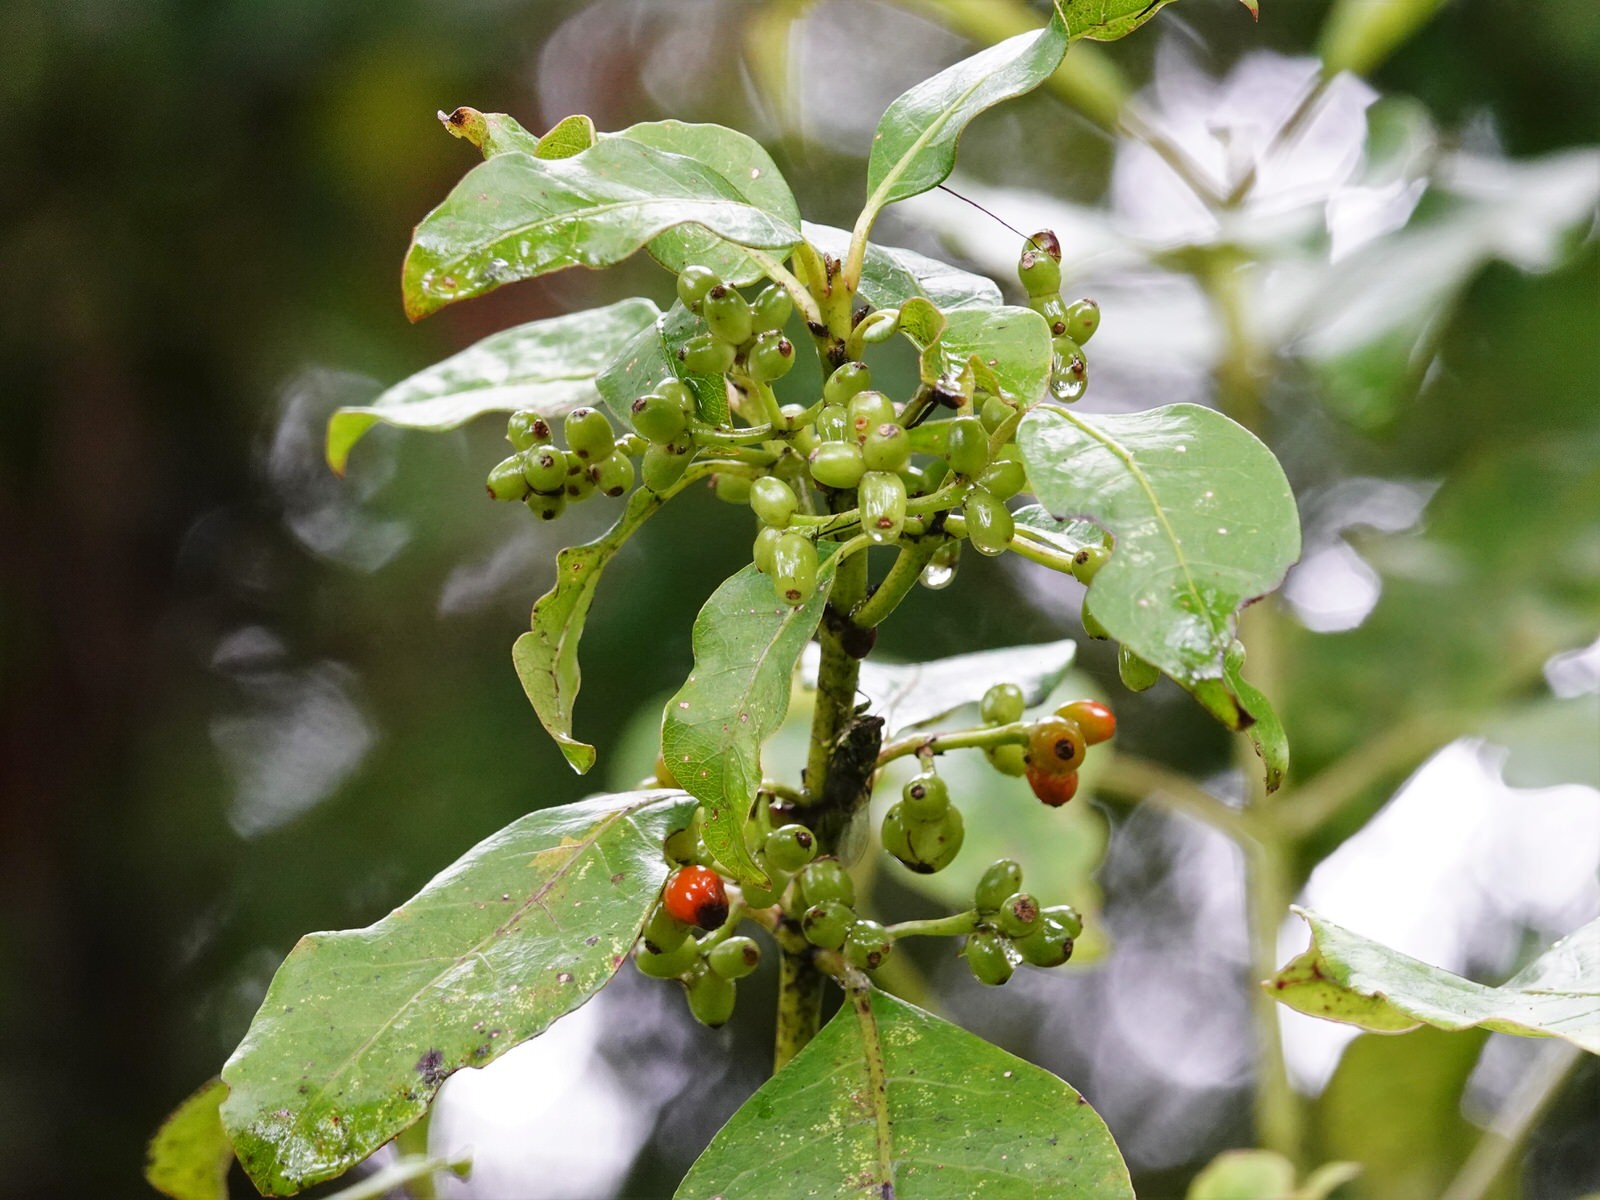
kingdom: Plantae
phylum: Tracheophyta
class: Magnoliopsida
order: Gentianales
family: Rubiaceae
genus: Coprosma
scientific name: Coprosma autumnalis
